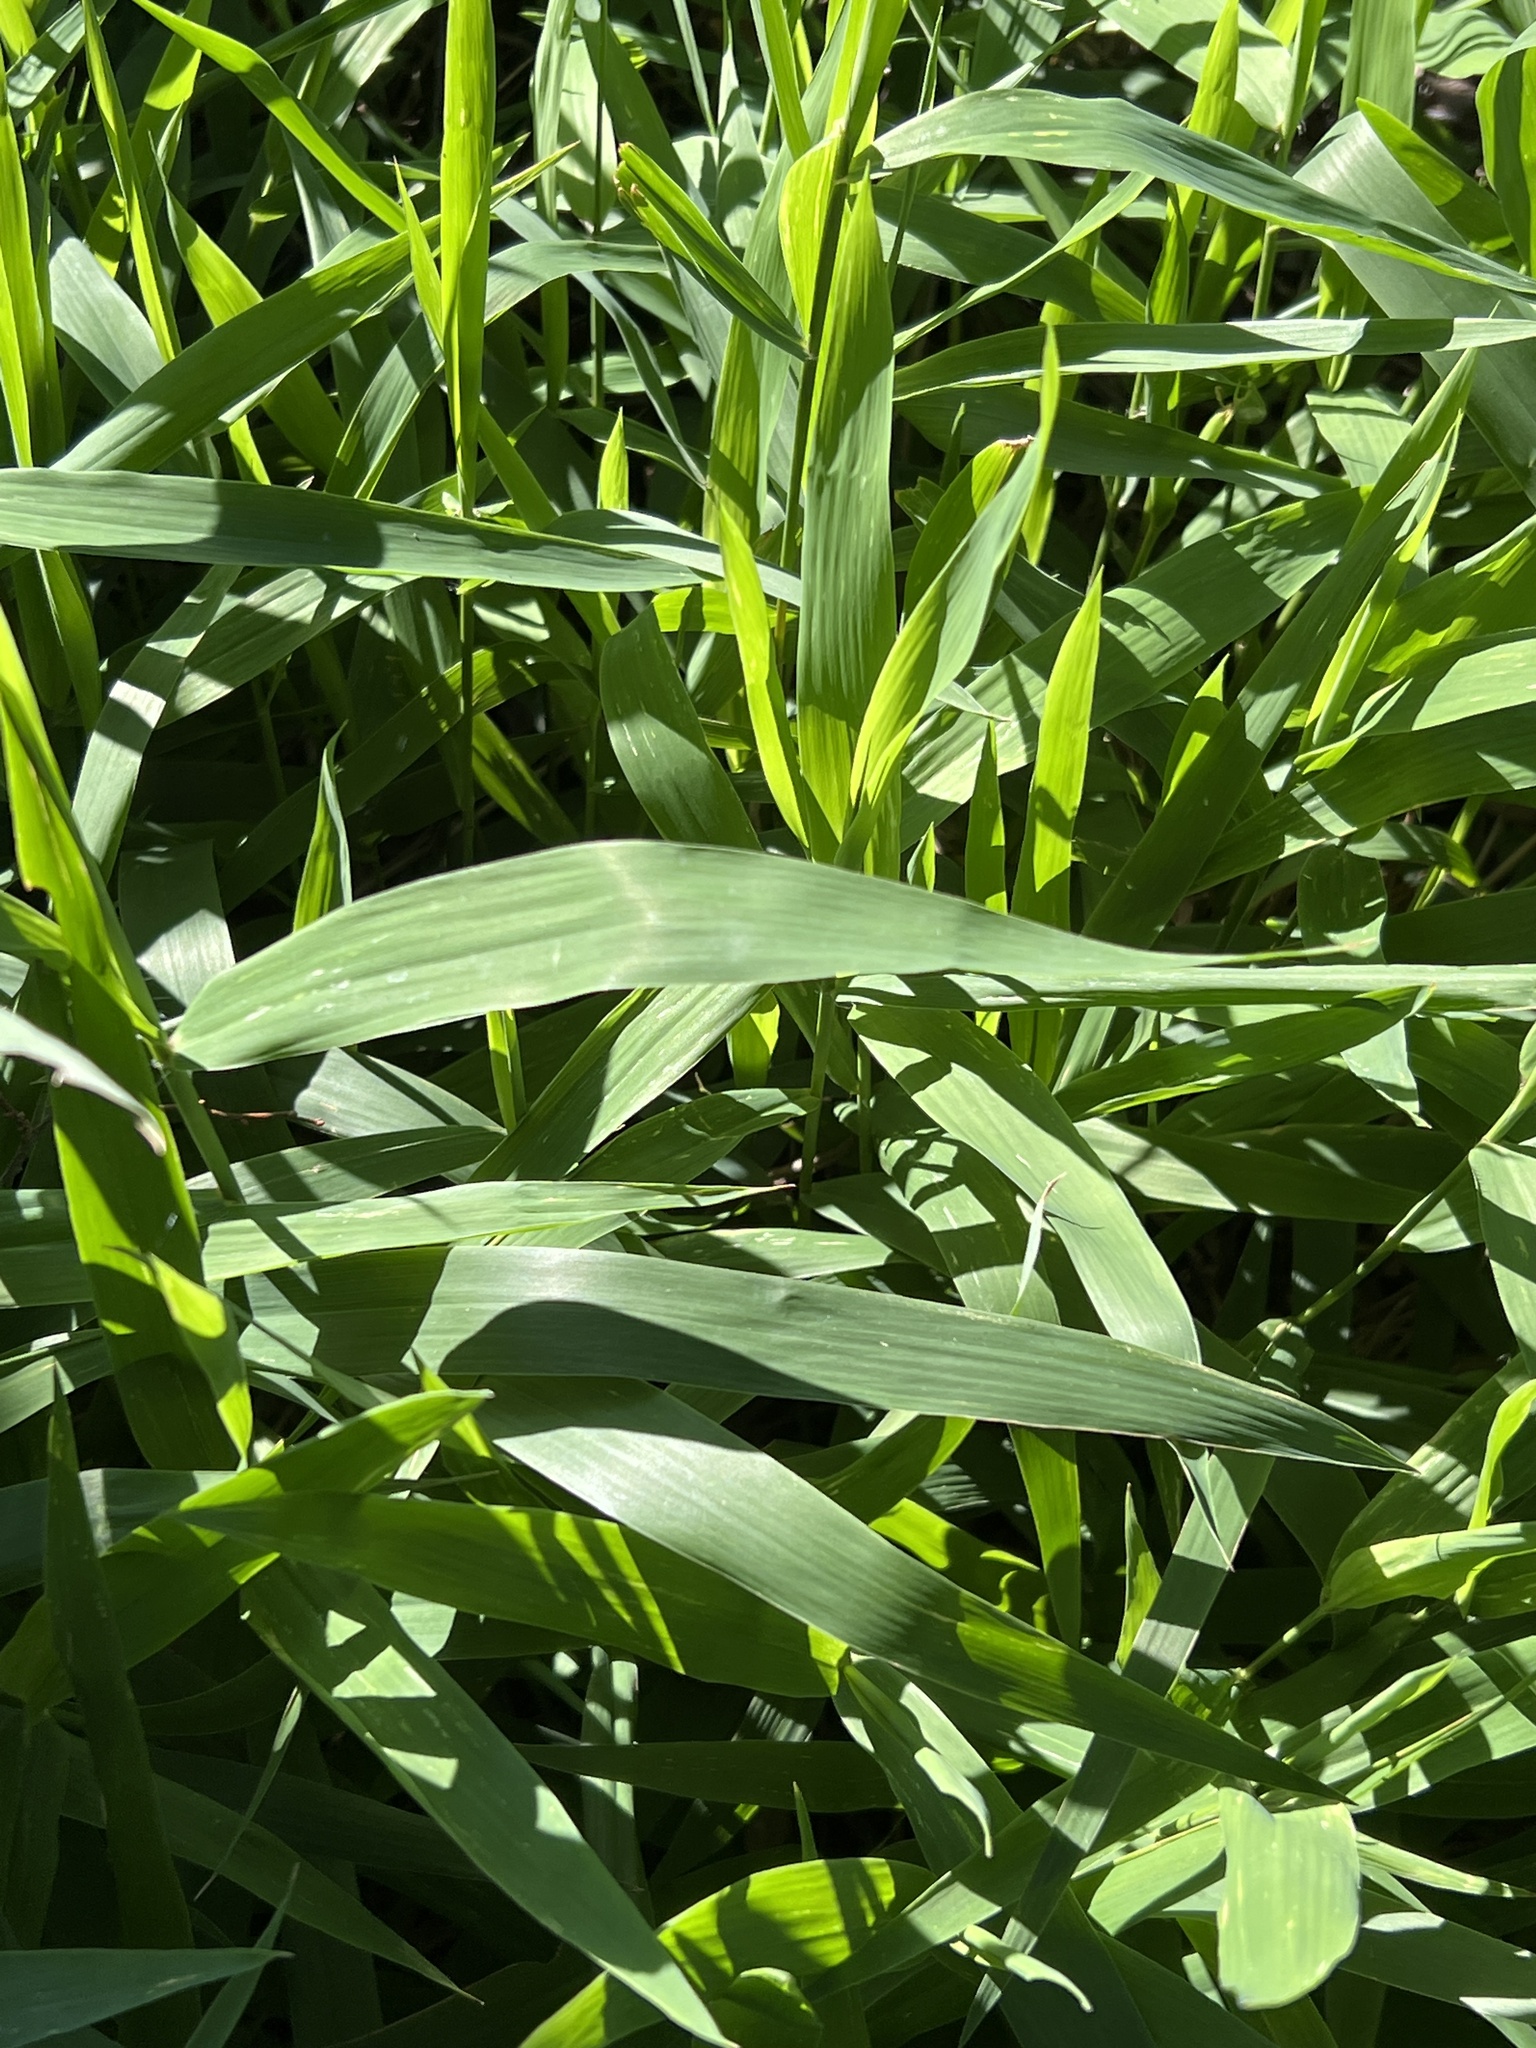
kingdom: Plantae
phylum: Tracheophyta
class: Liliopsida
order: Poales
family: Poaceae
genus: Chasmanthium
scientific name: Chasmanthium latifolium
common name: Broad-leaved chasmanthium
